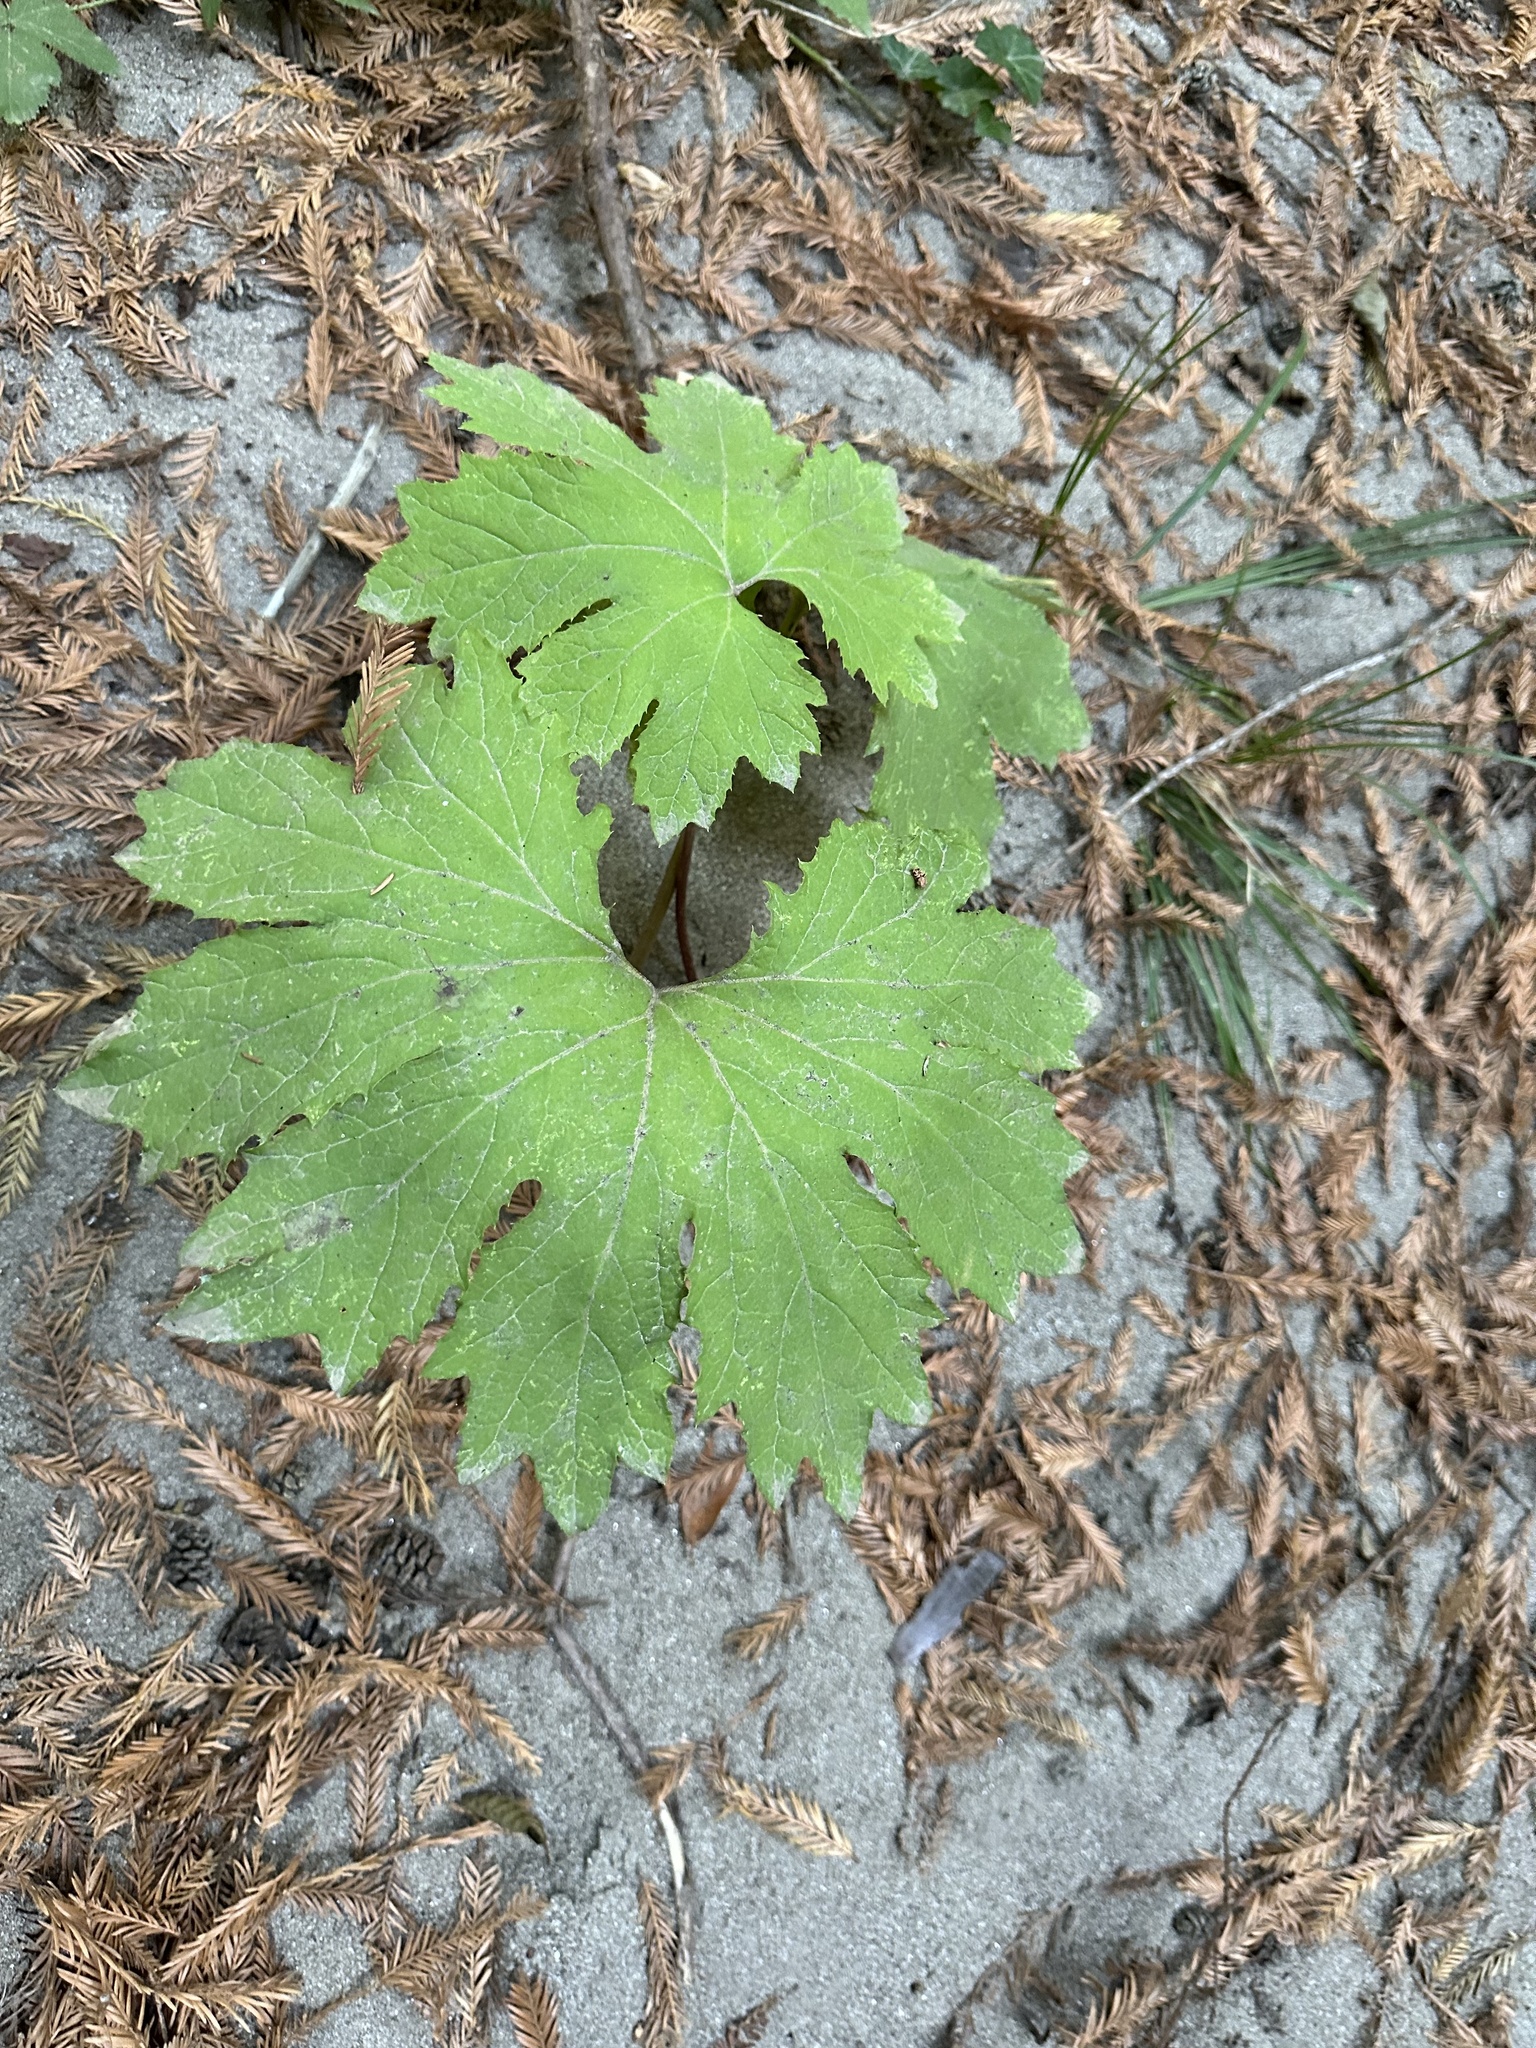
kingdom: Plantae
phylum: Tracheophyta
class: Magnoliopsida
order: Asterales
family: Asteraceae
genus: Petasites
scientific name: Petasites frigidus
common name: Arctic butterbur
